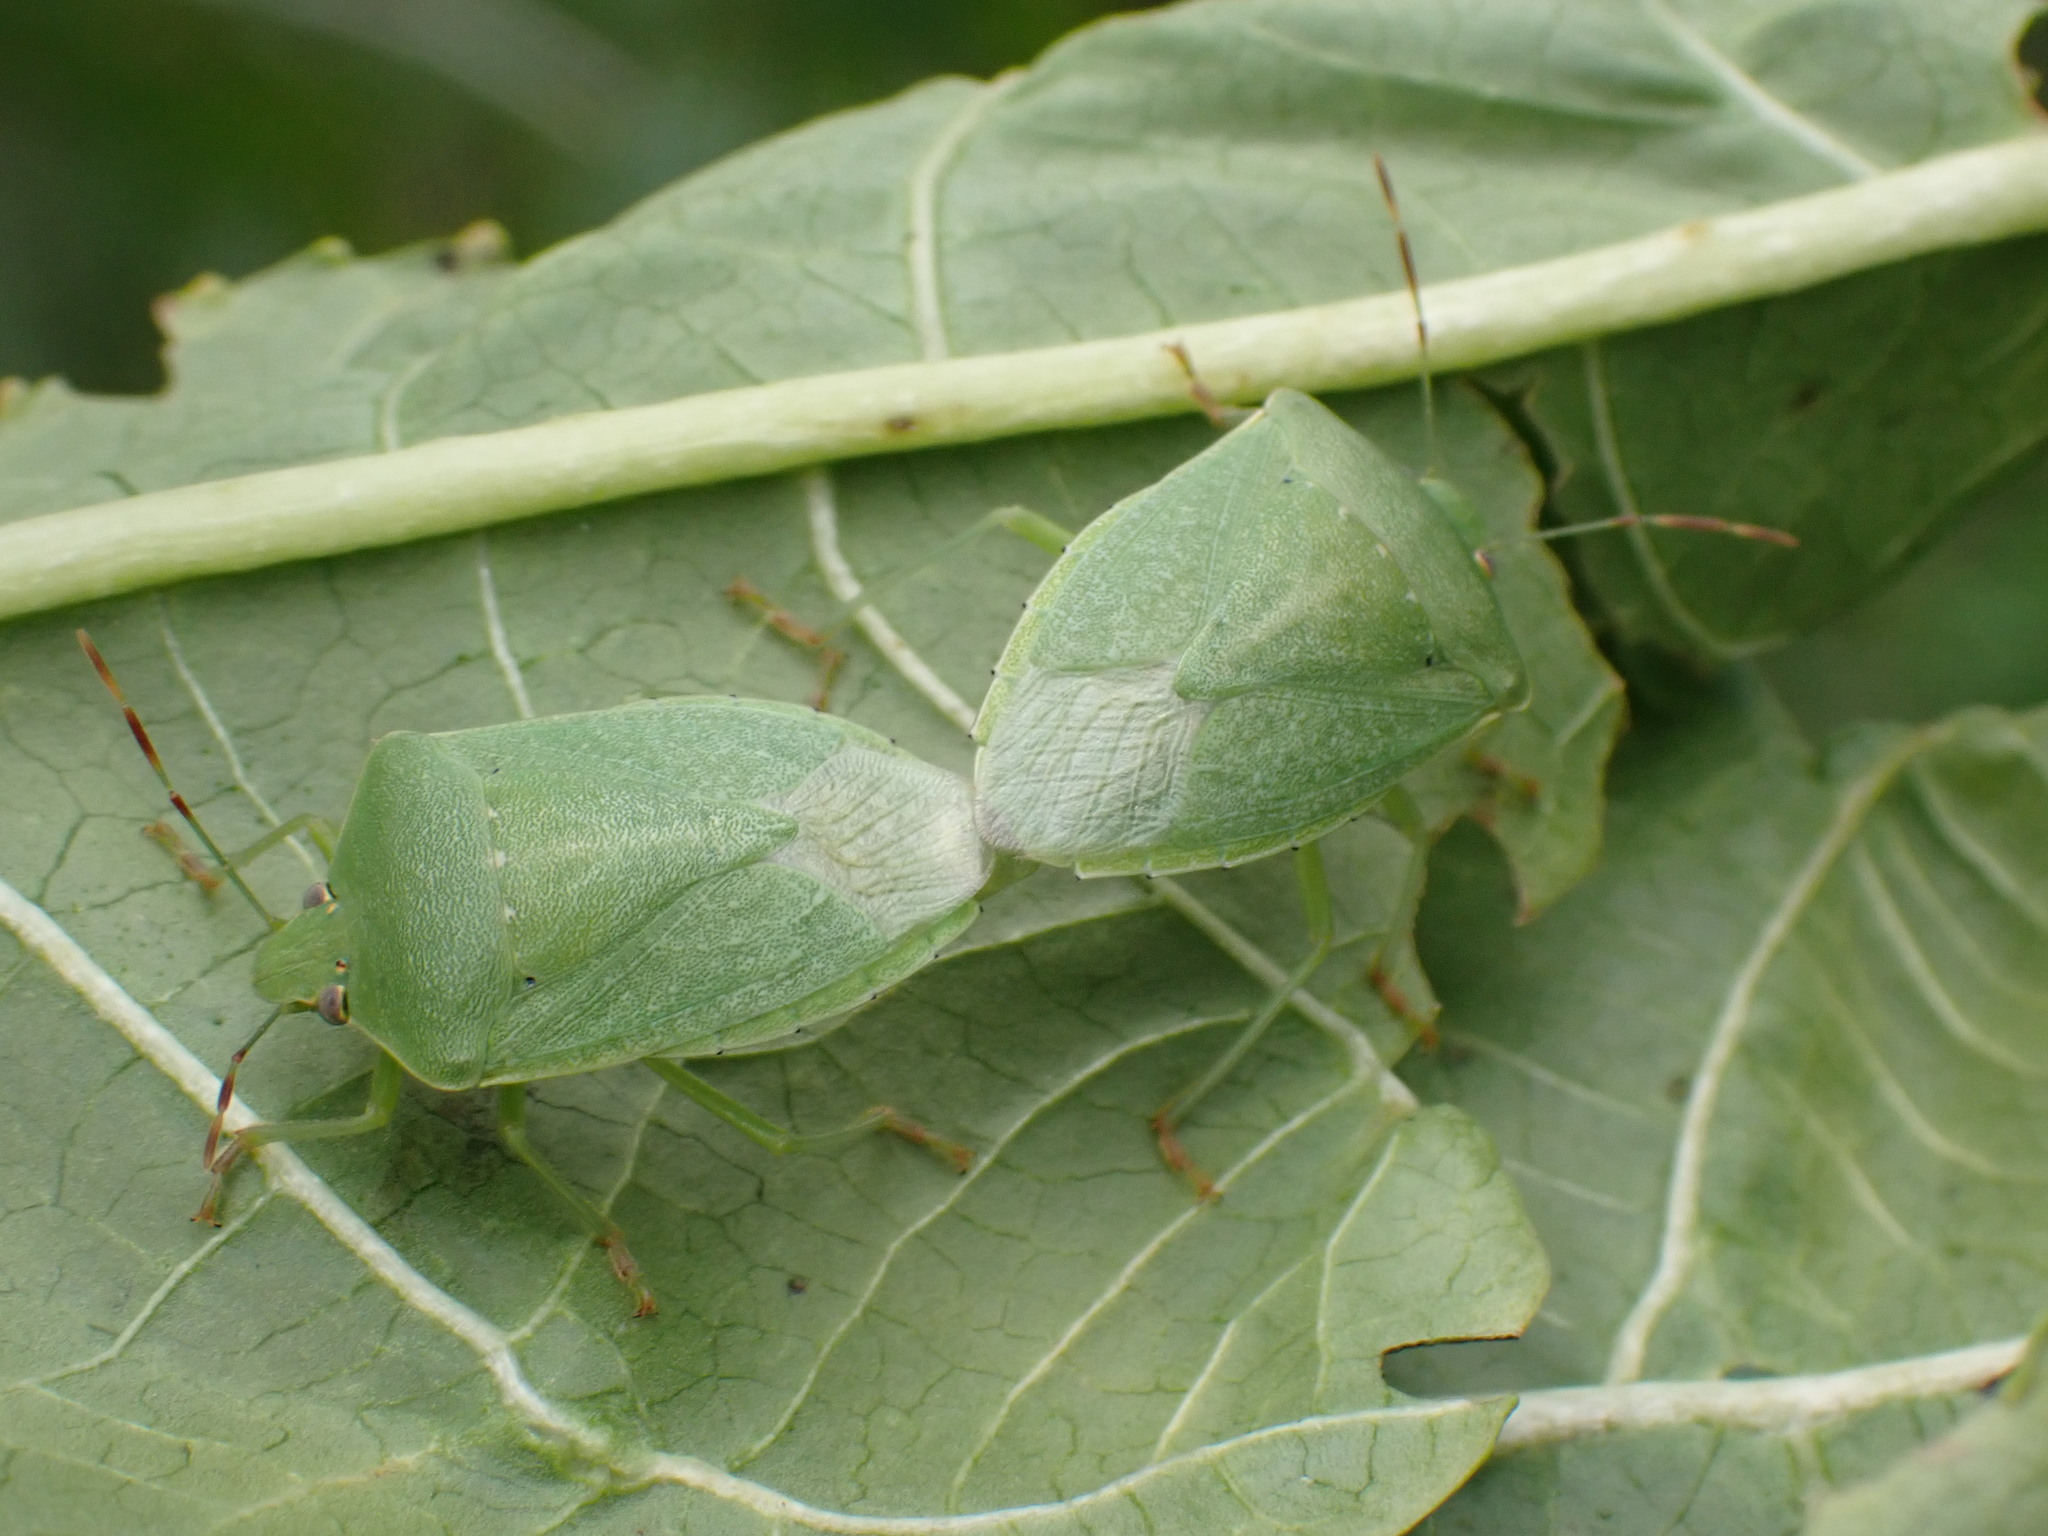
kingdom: Animalia
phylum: Arthropoda
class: Insecta
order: Hemiptera
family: Pentatomidae
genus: Nezara
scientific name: Nezara viridula
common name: Southern green stink bug
